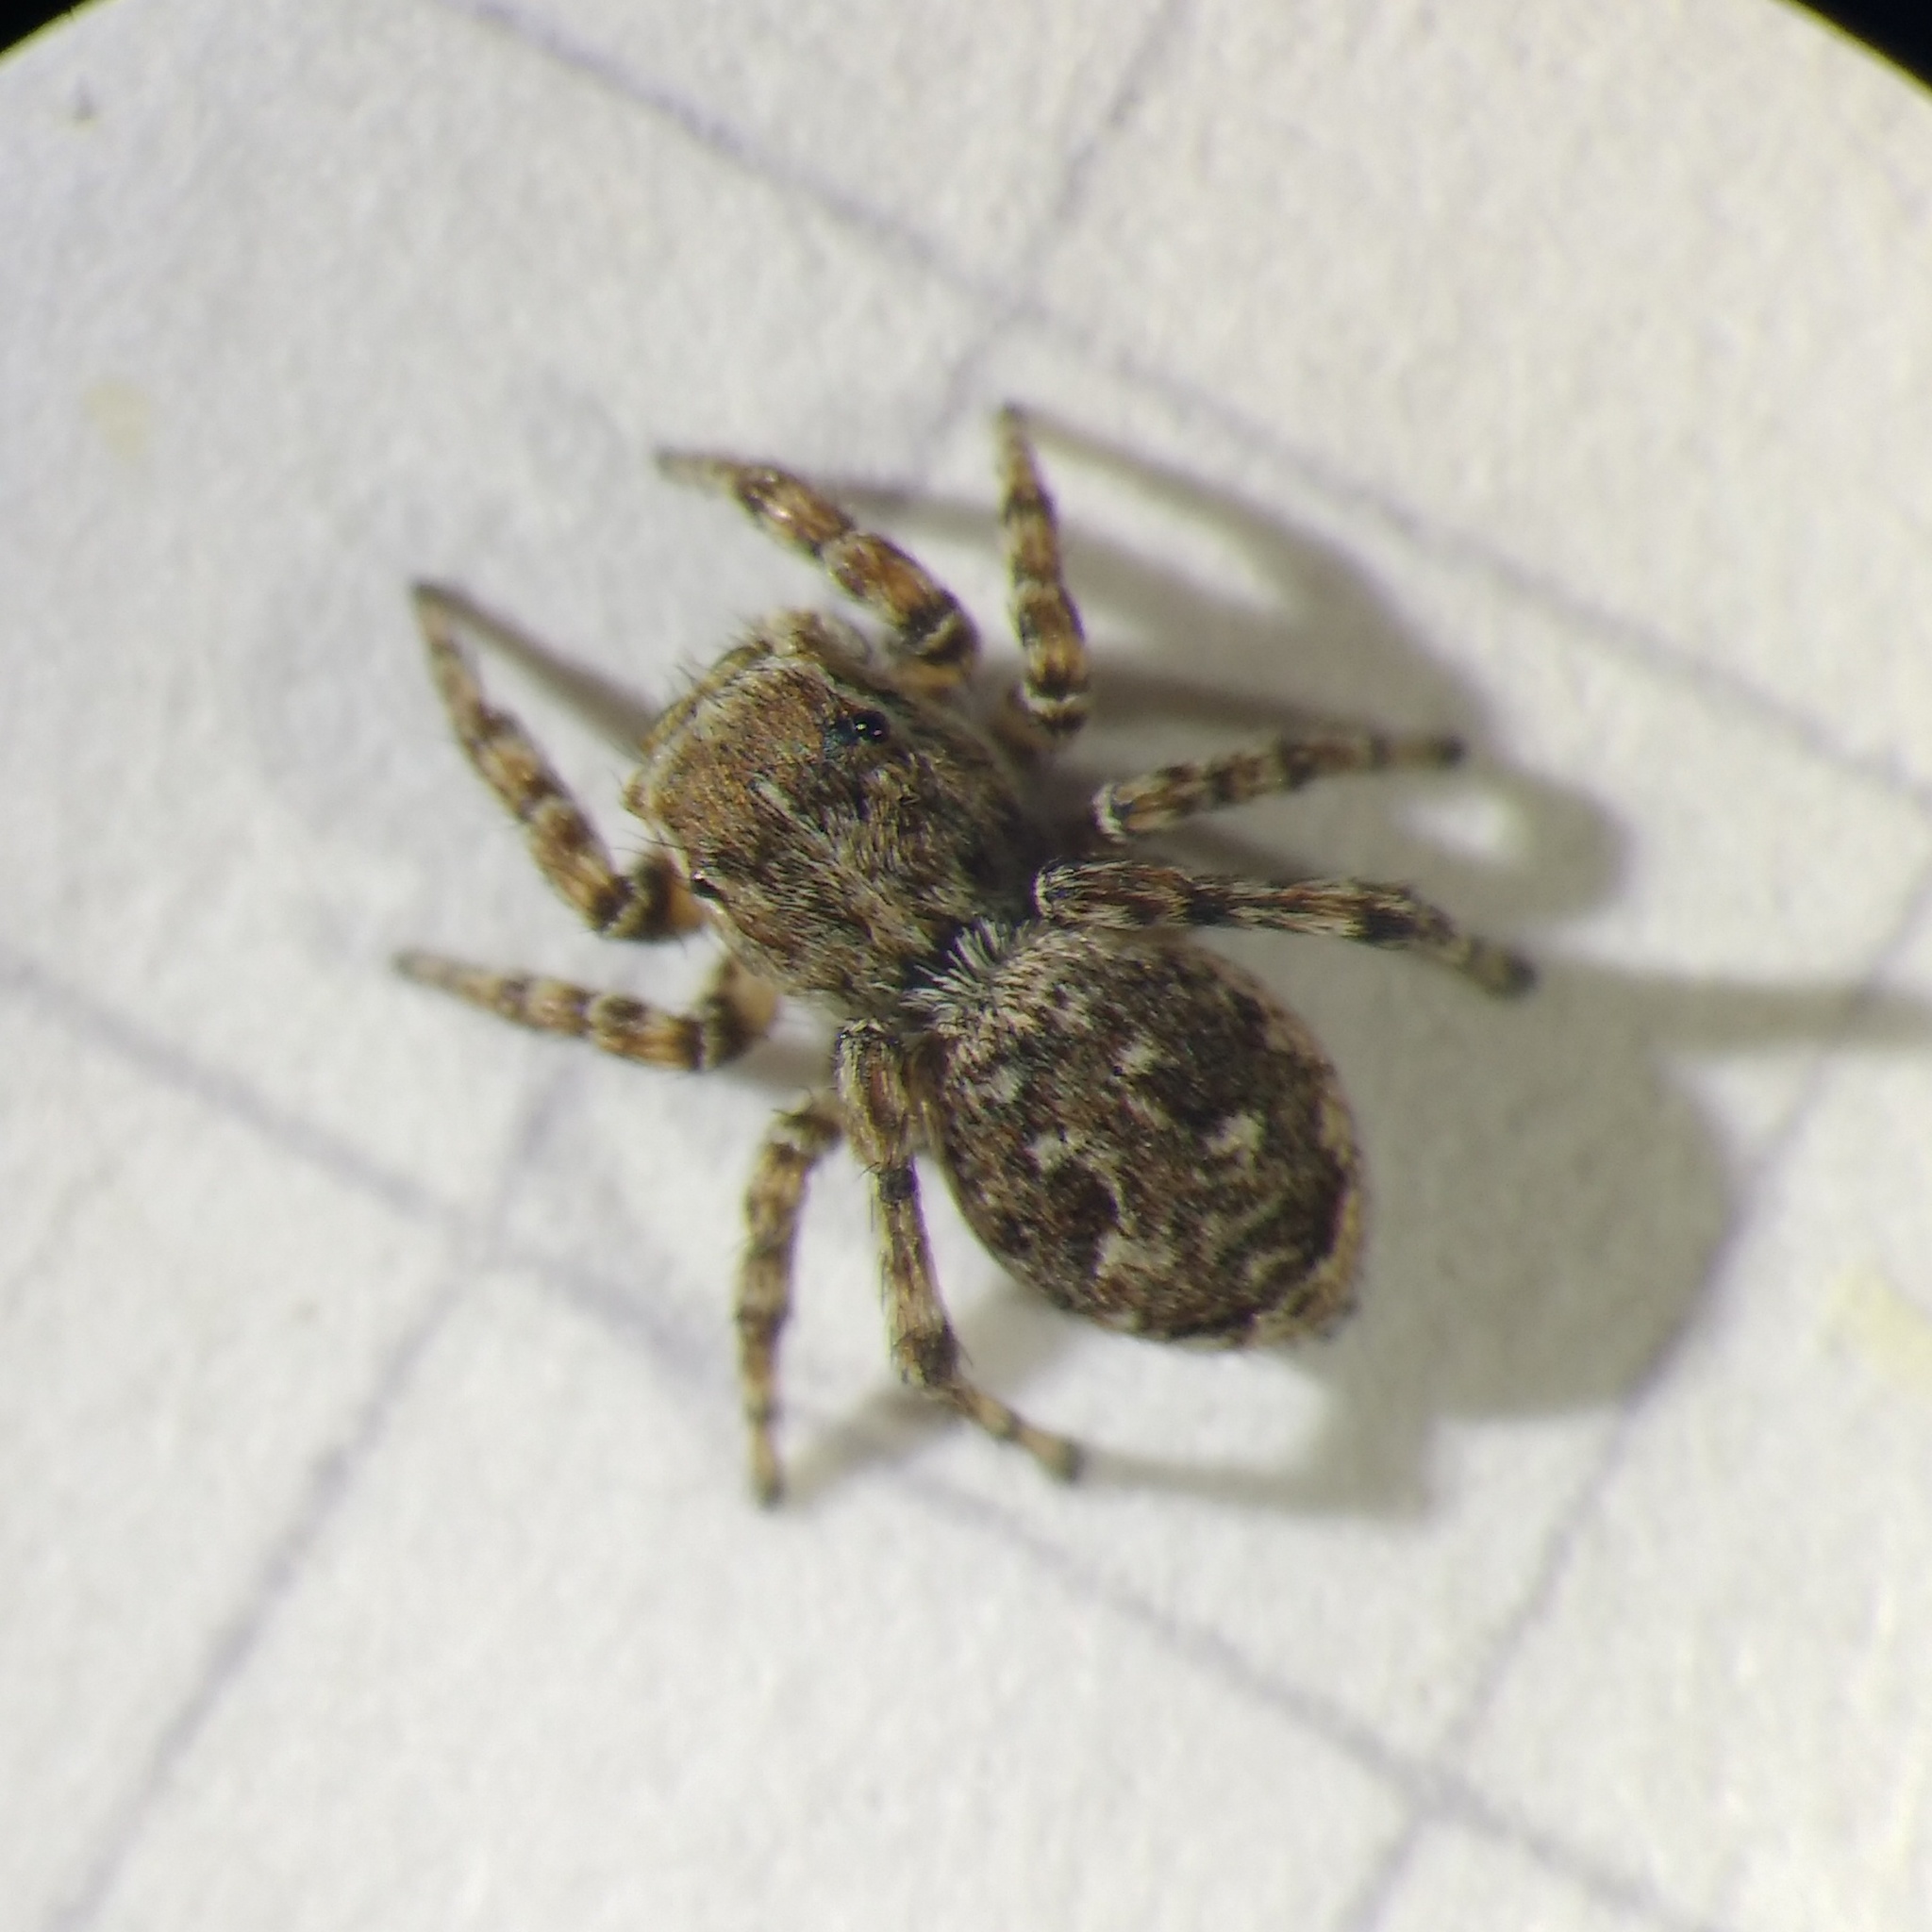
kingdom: Animalia
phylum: Arthropoda
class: Arachnida
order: Araneae
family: Salticidae
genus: Attulus
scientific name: Attulus atricapillus
